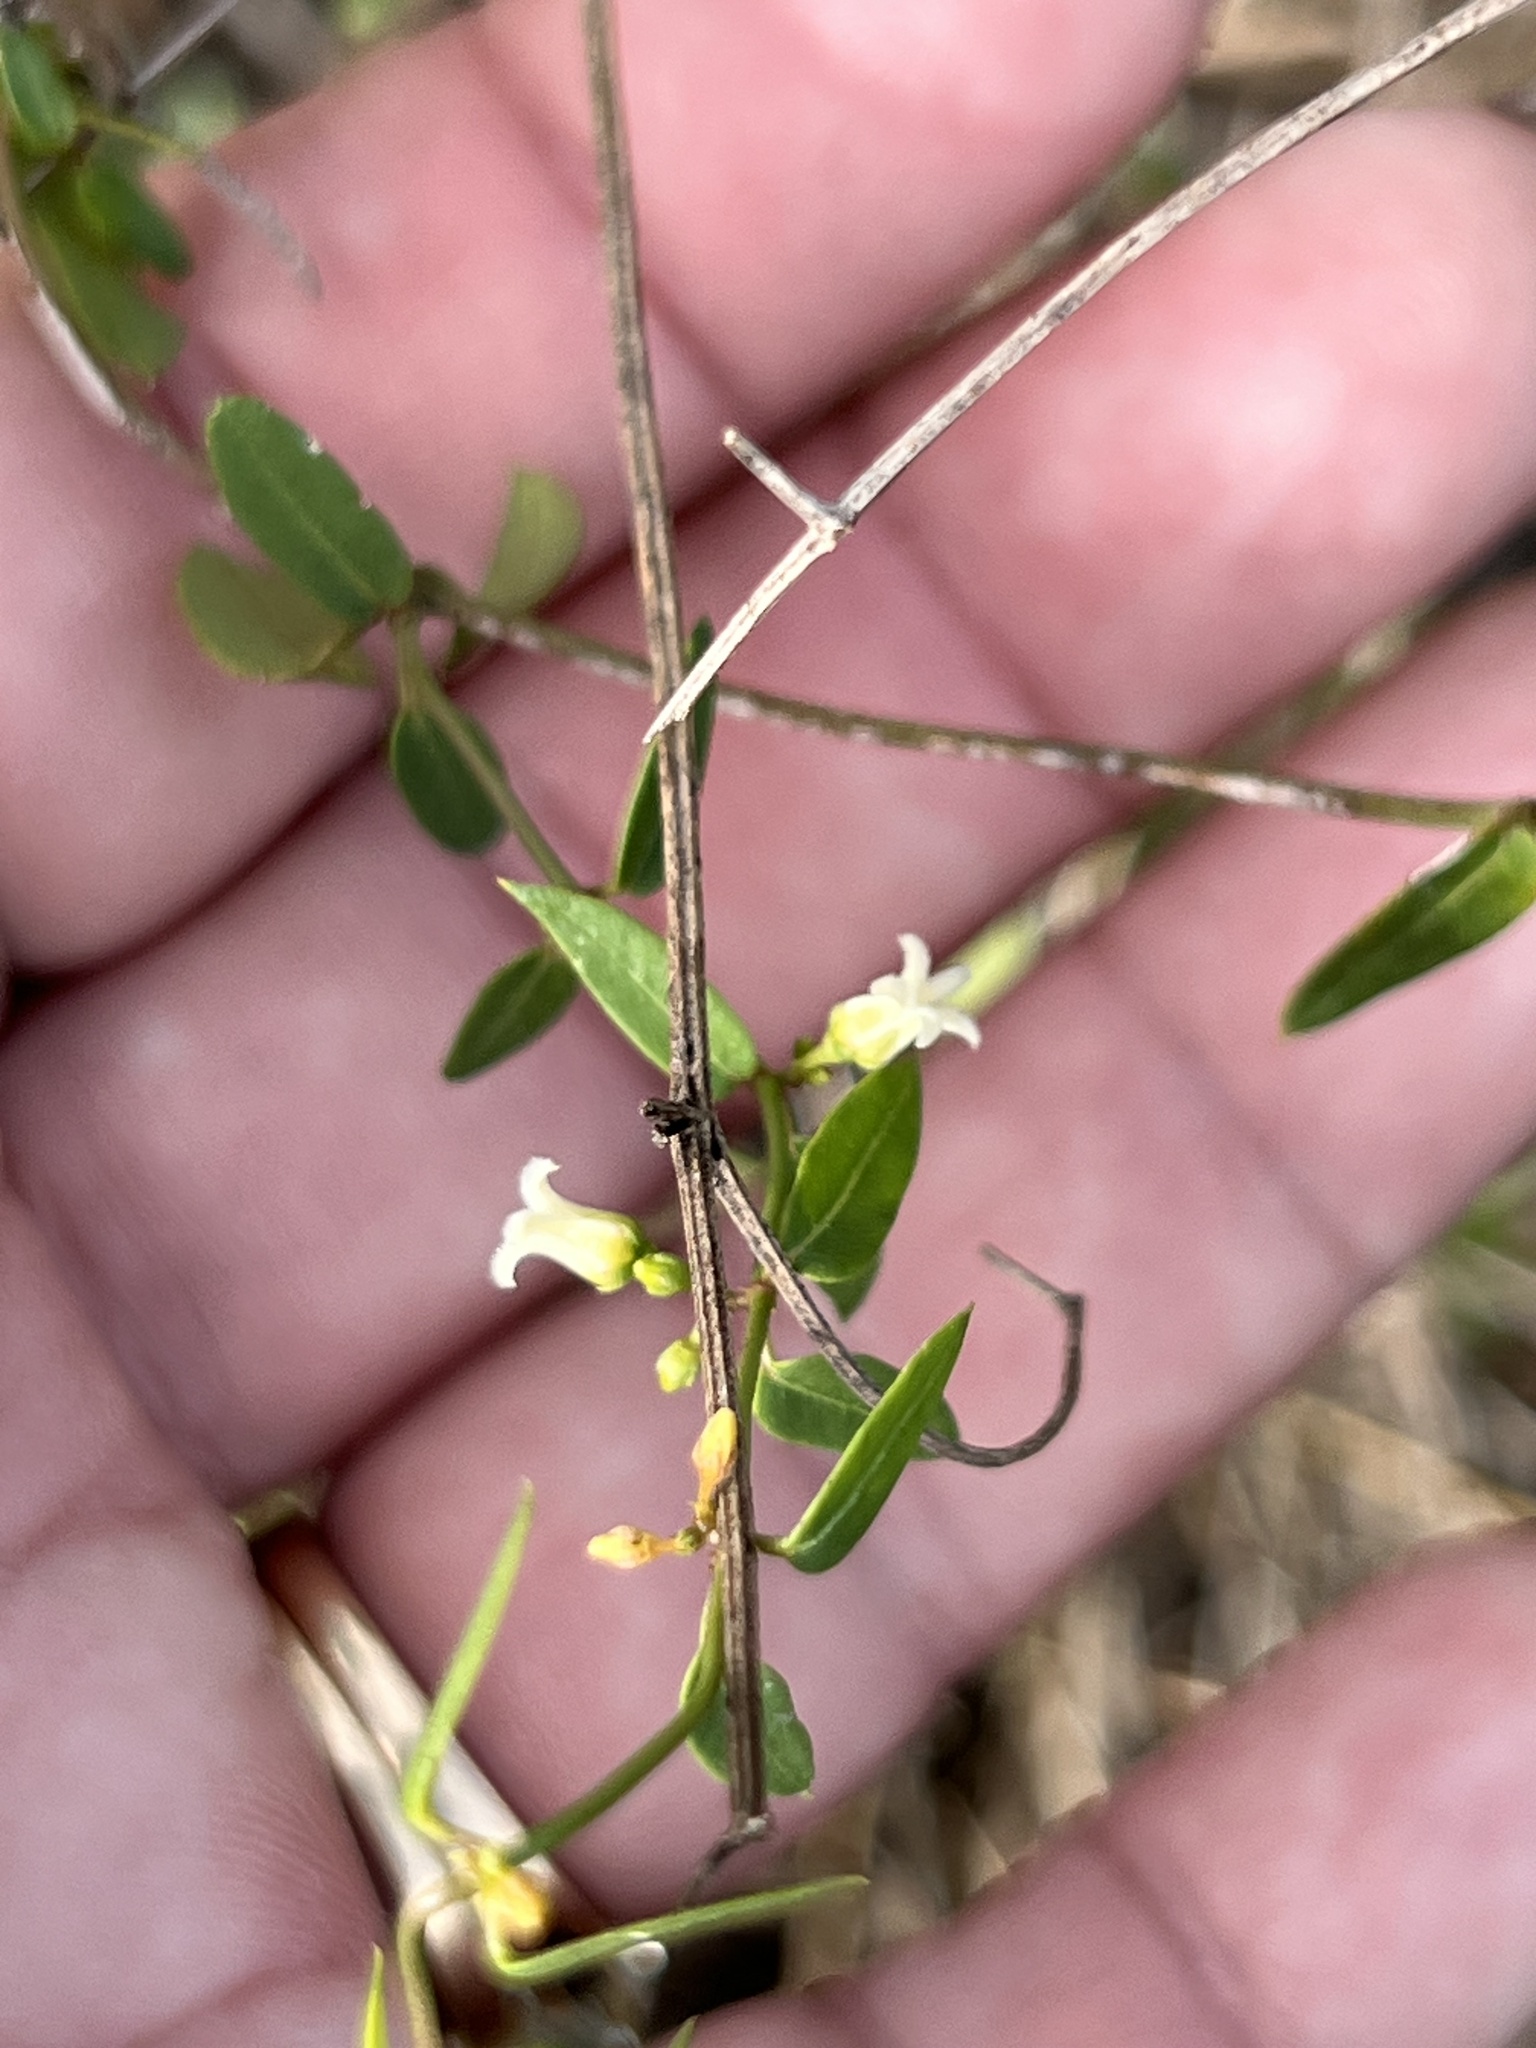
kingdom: Plantae
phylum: Tracheophyta
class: Magnoliopsida
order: Gentianales
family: Apocynaceae
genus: Metastelma
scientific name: Metastelma barbigerum
